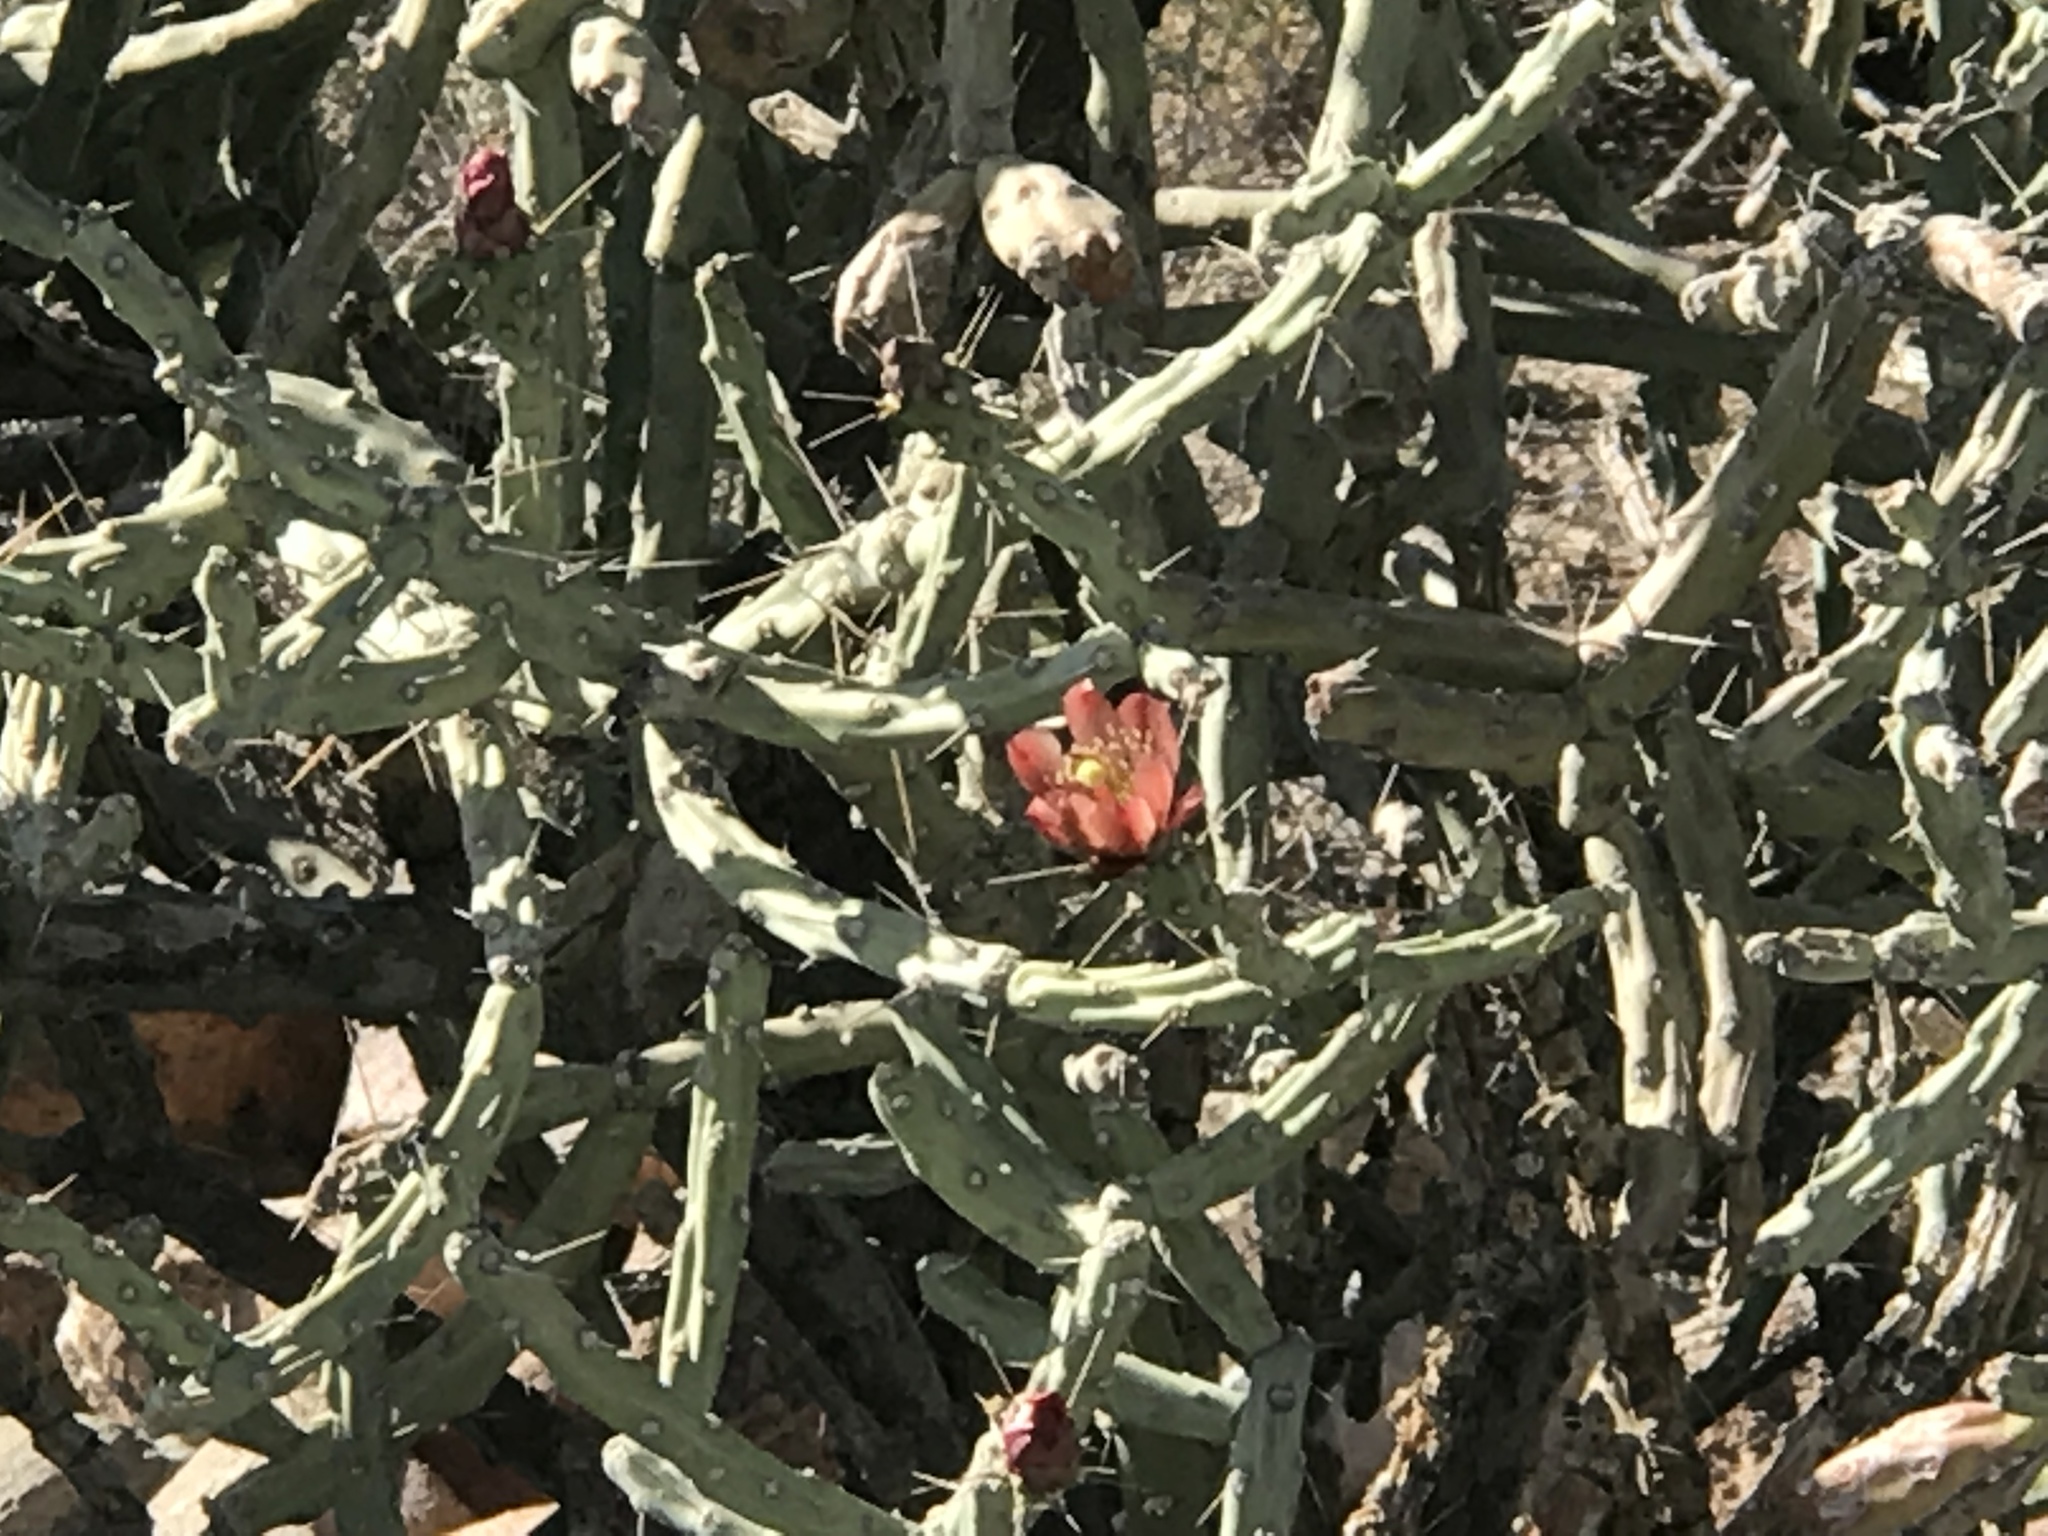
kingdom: Plantae
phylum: Tracheophyta
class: Magnoliopsida
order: Caryophyllales
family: Cactaceae
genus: Cylindropuntia
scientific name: Cylindropuntia vivipara
